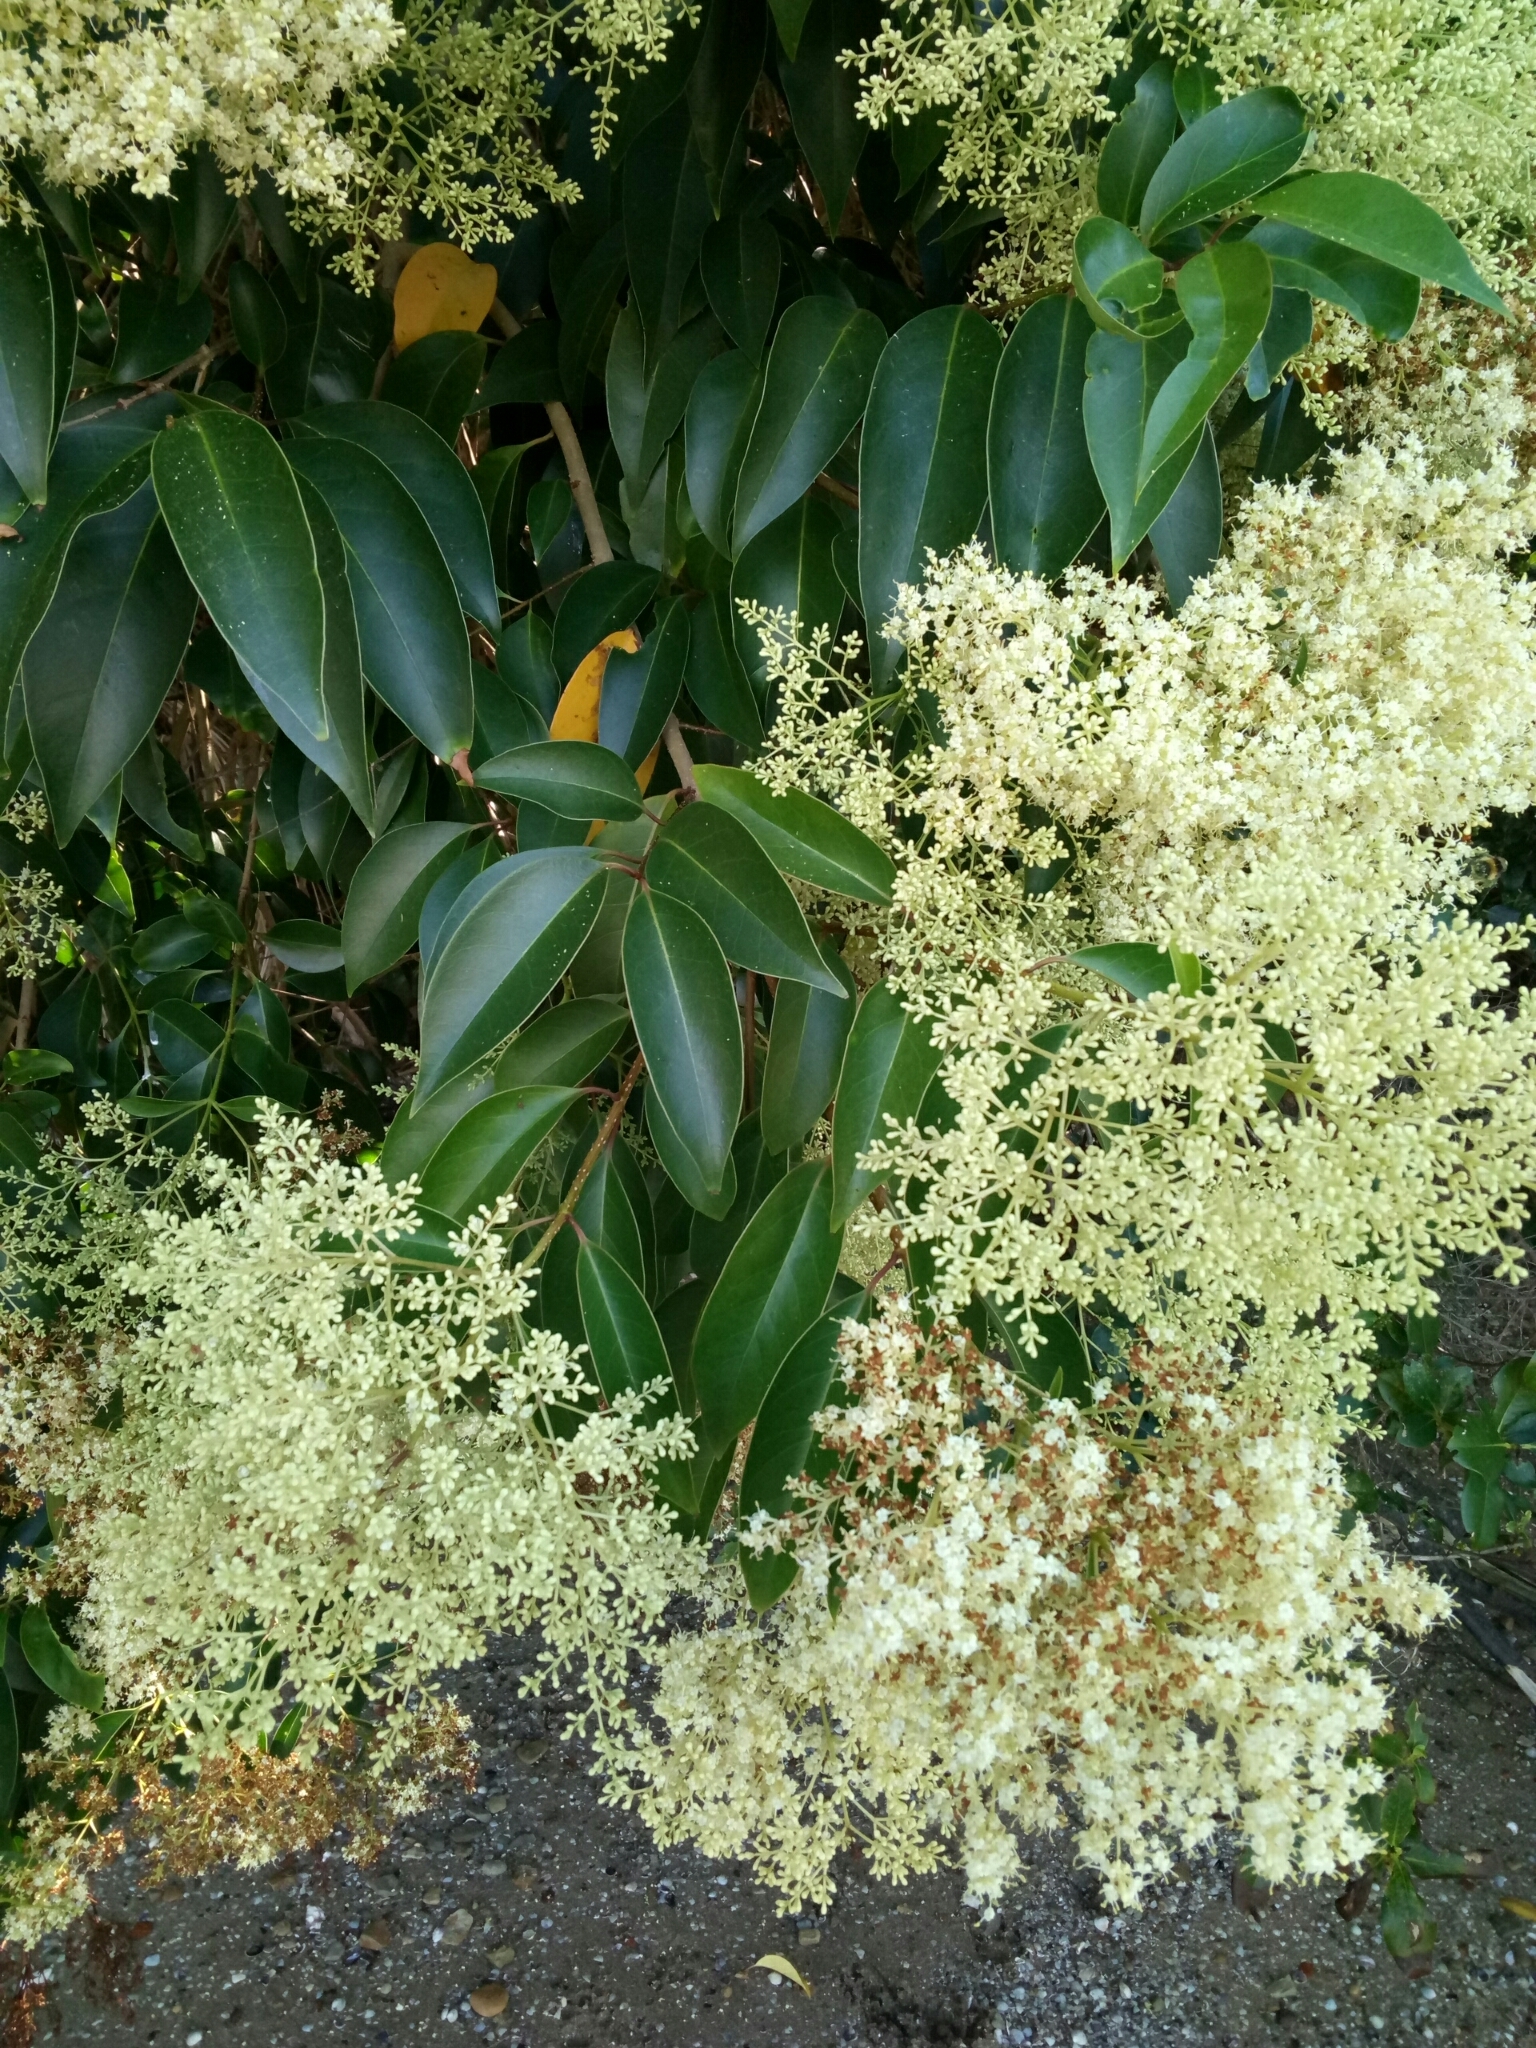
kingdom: Plantae
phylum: Tracheophyta
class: Magnoliopsida
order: Lamiales
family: Oleaceae
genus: Ligustrum
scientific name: Ligustrum lucidum
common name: Glossy privet
